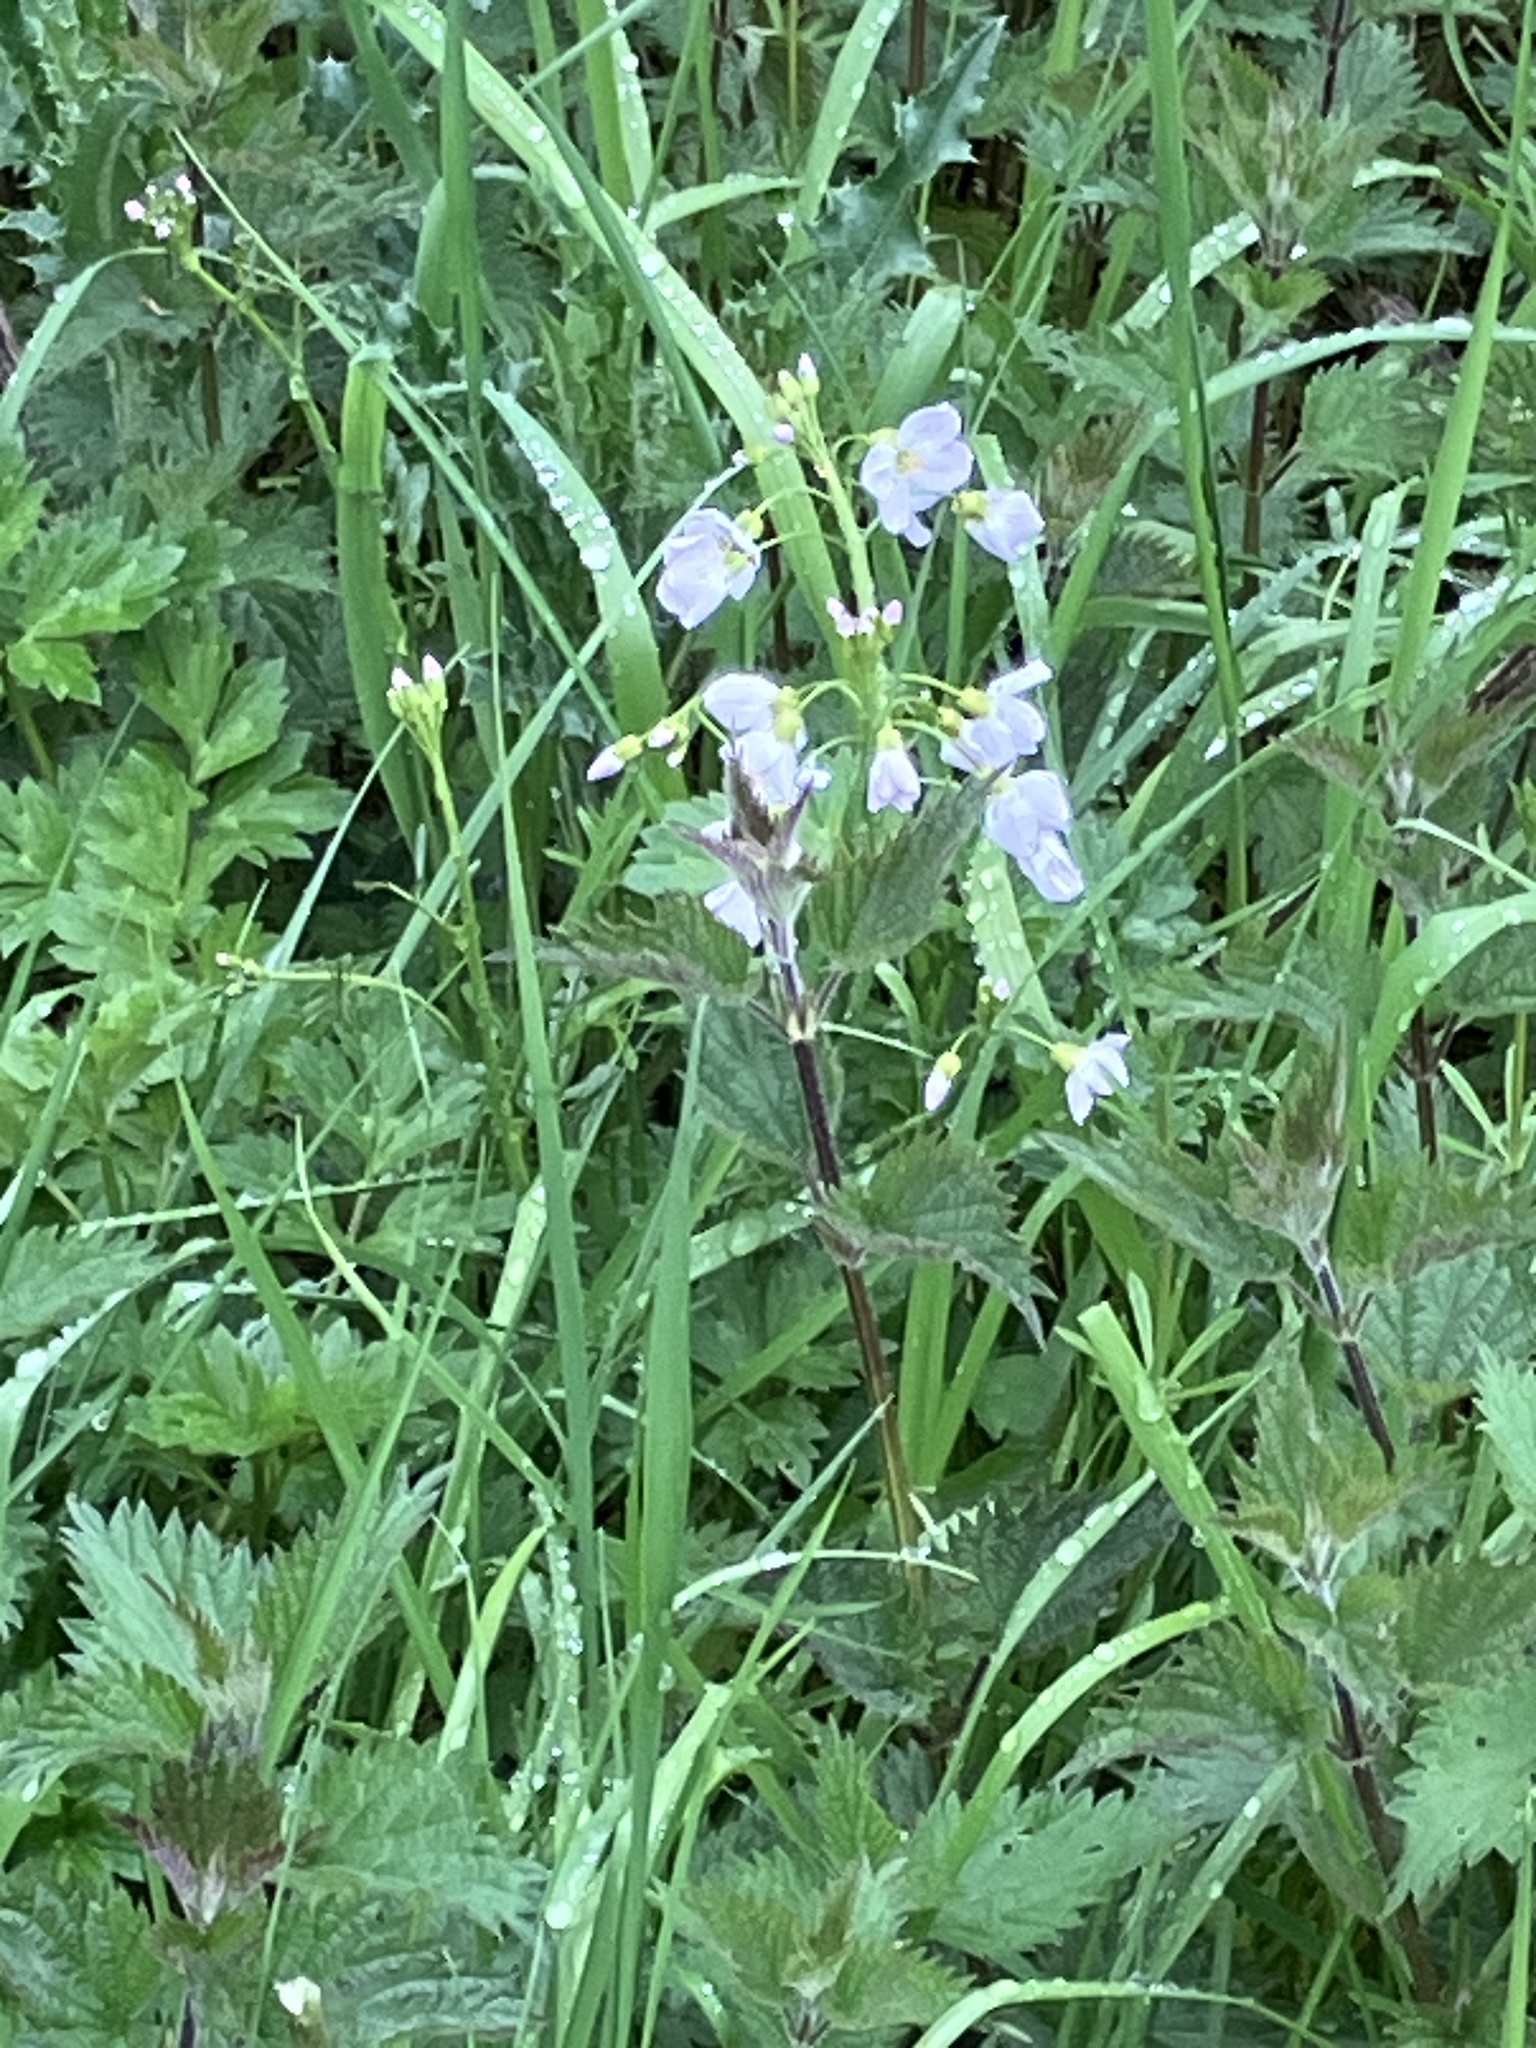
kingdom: Plantae
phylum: Tracheophyta
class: Magnoliopsida
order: Brassicales
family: Brassicaceae
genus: Cardamine
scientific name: Cardamine pratensis
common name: Cuckoo flower
